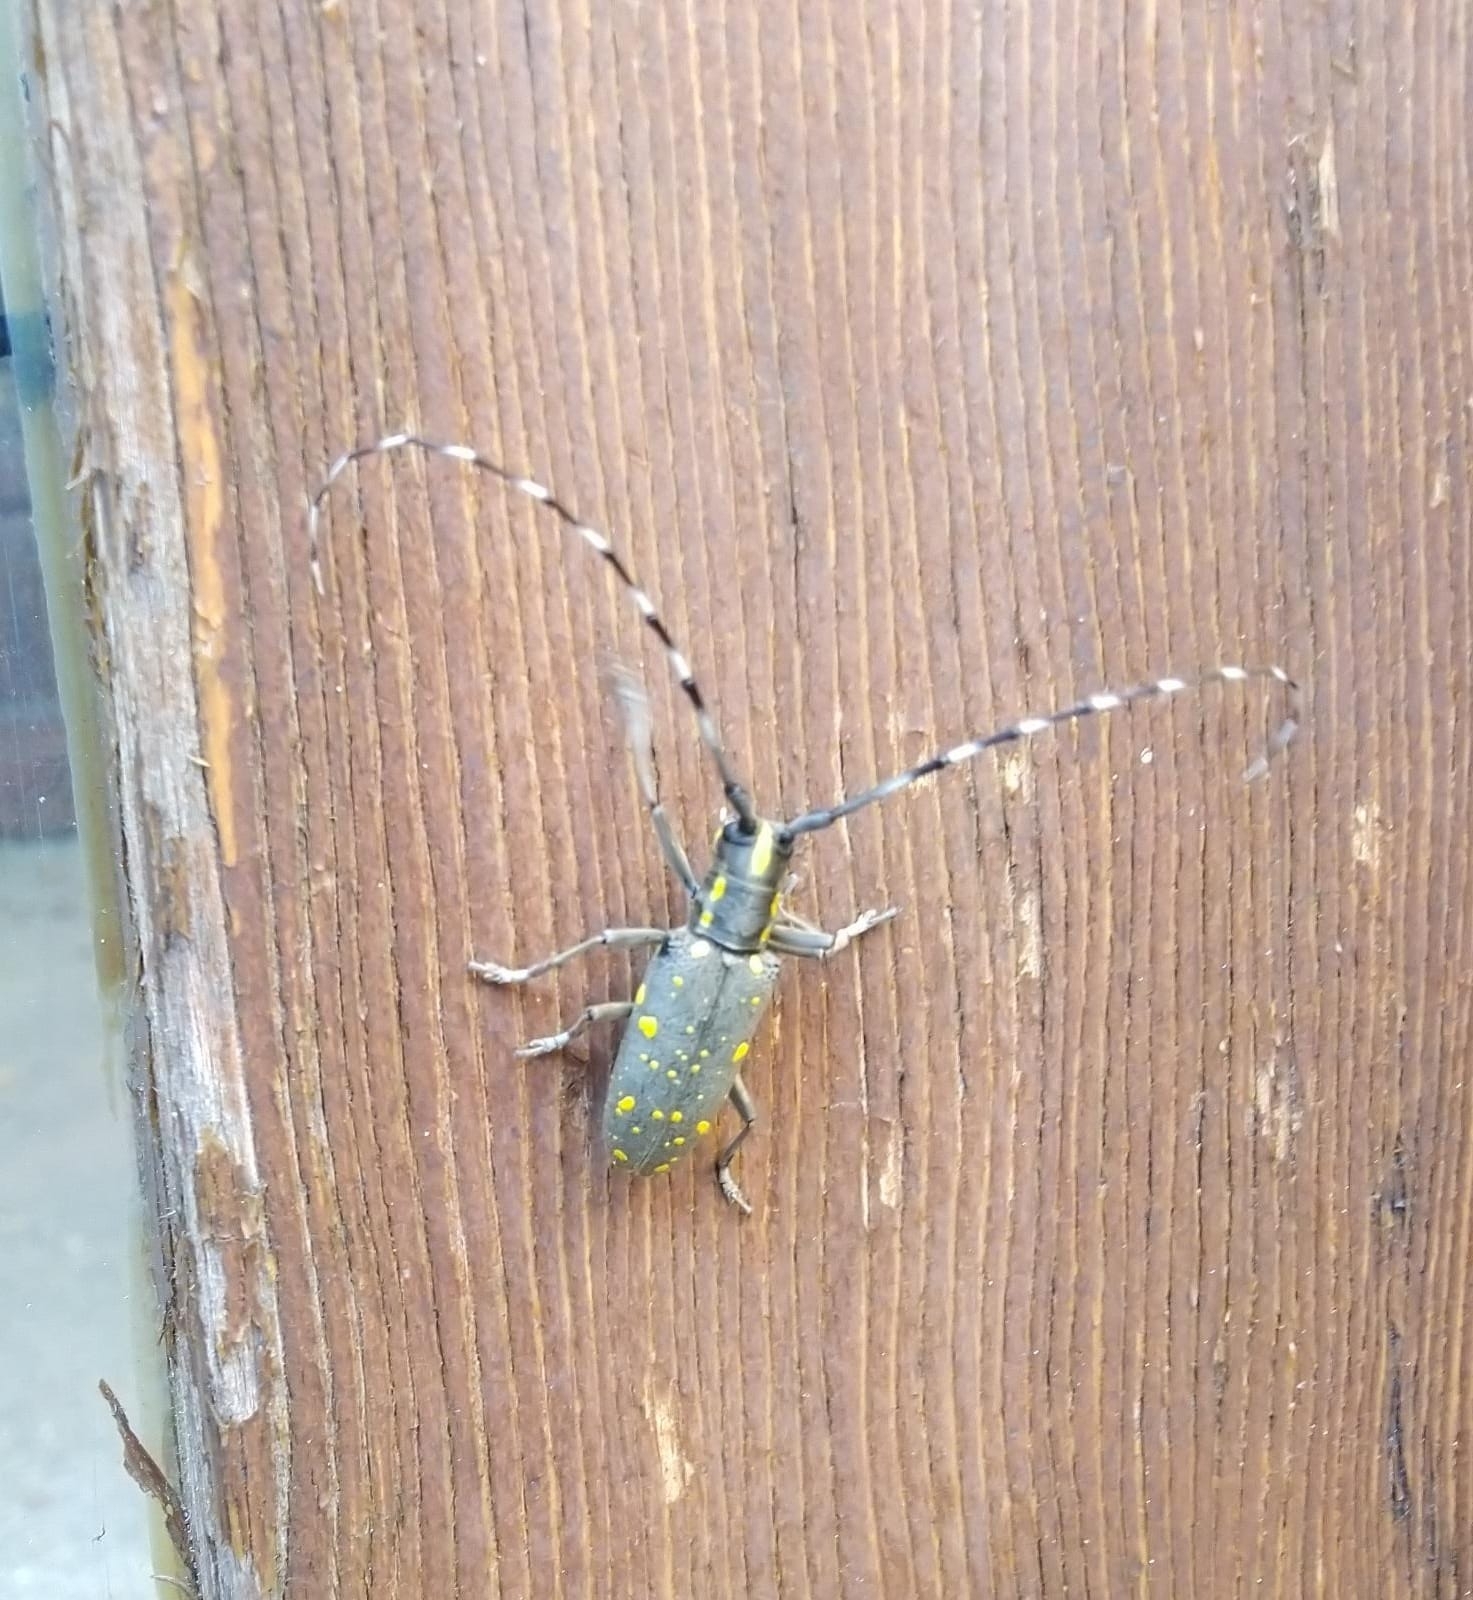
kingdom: Animalia
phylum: Arthropoda
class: Insecta
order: Coleoptera
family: Cerambycidae
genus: Psacothea
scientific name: Psacothea hilaris
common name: Yellow-spotted longicorn beetle
